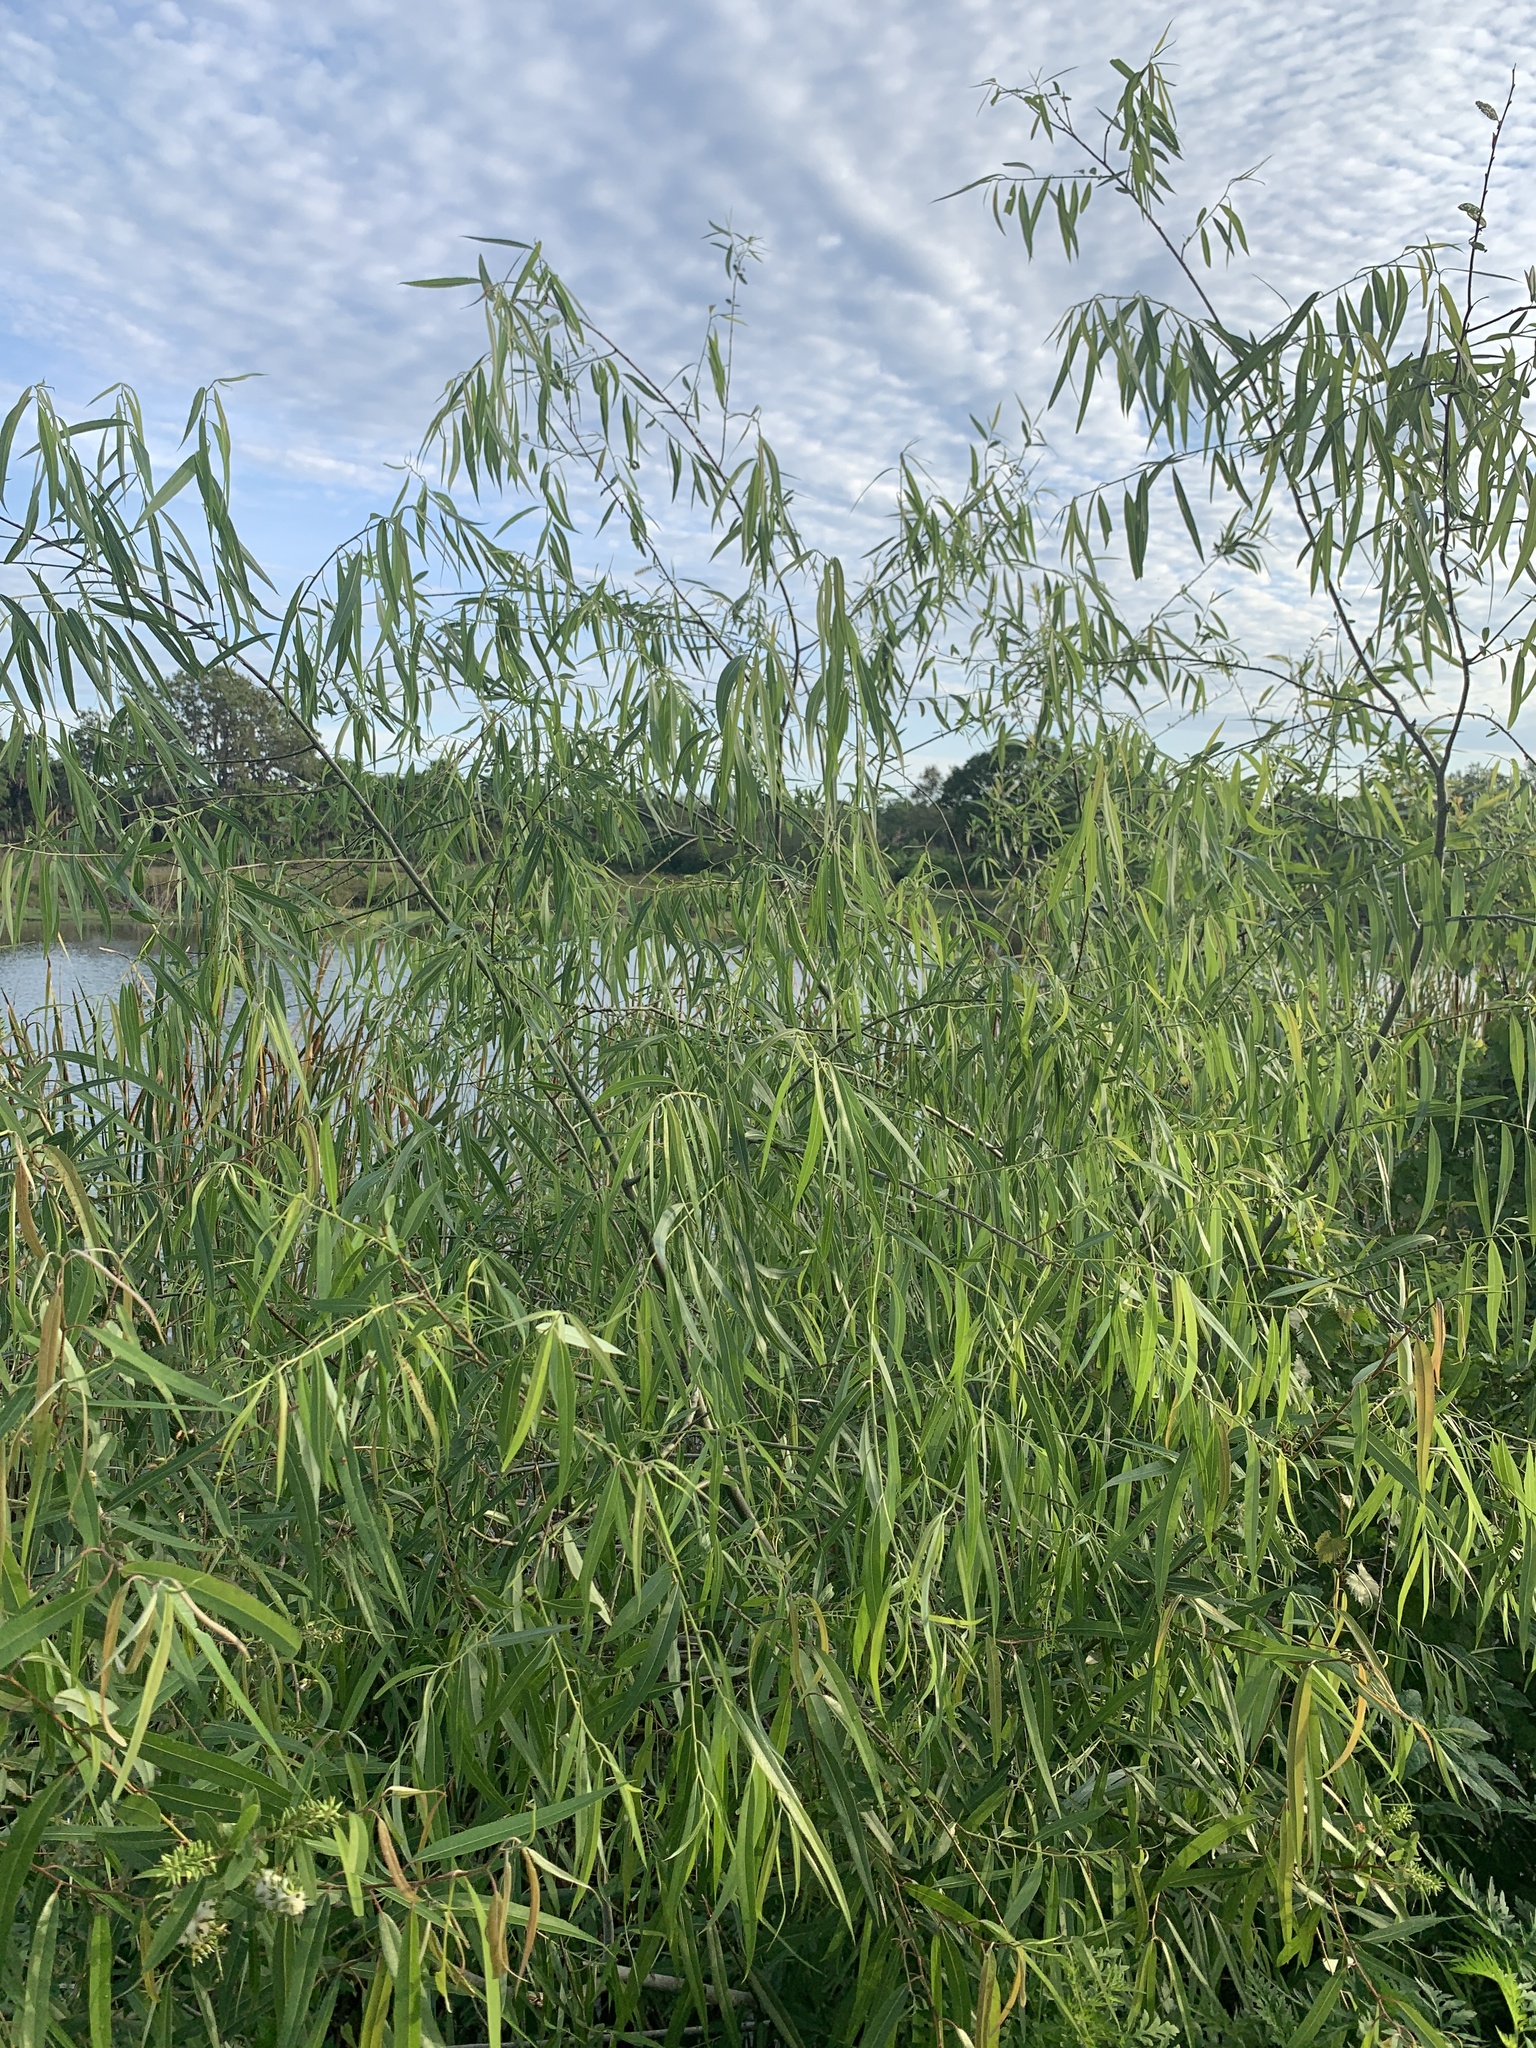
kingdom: Plantae
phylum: Tracheophyta
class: Magnoliopsida
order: Malpighiales
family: Salicaceae
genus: Salix
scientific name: Salix caroliniana
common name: Carolina willow
